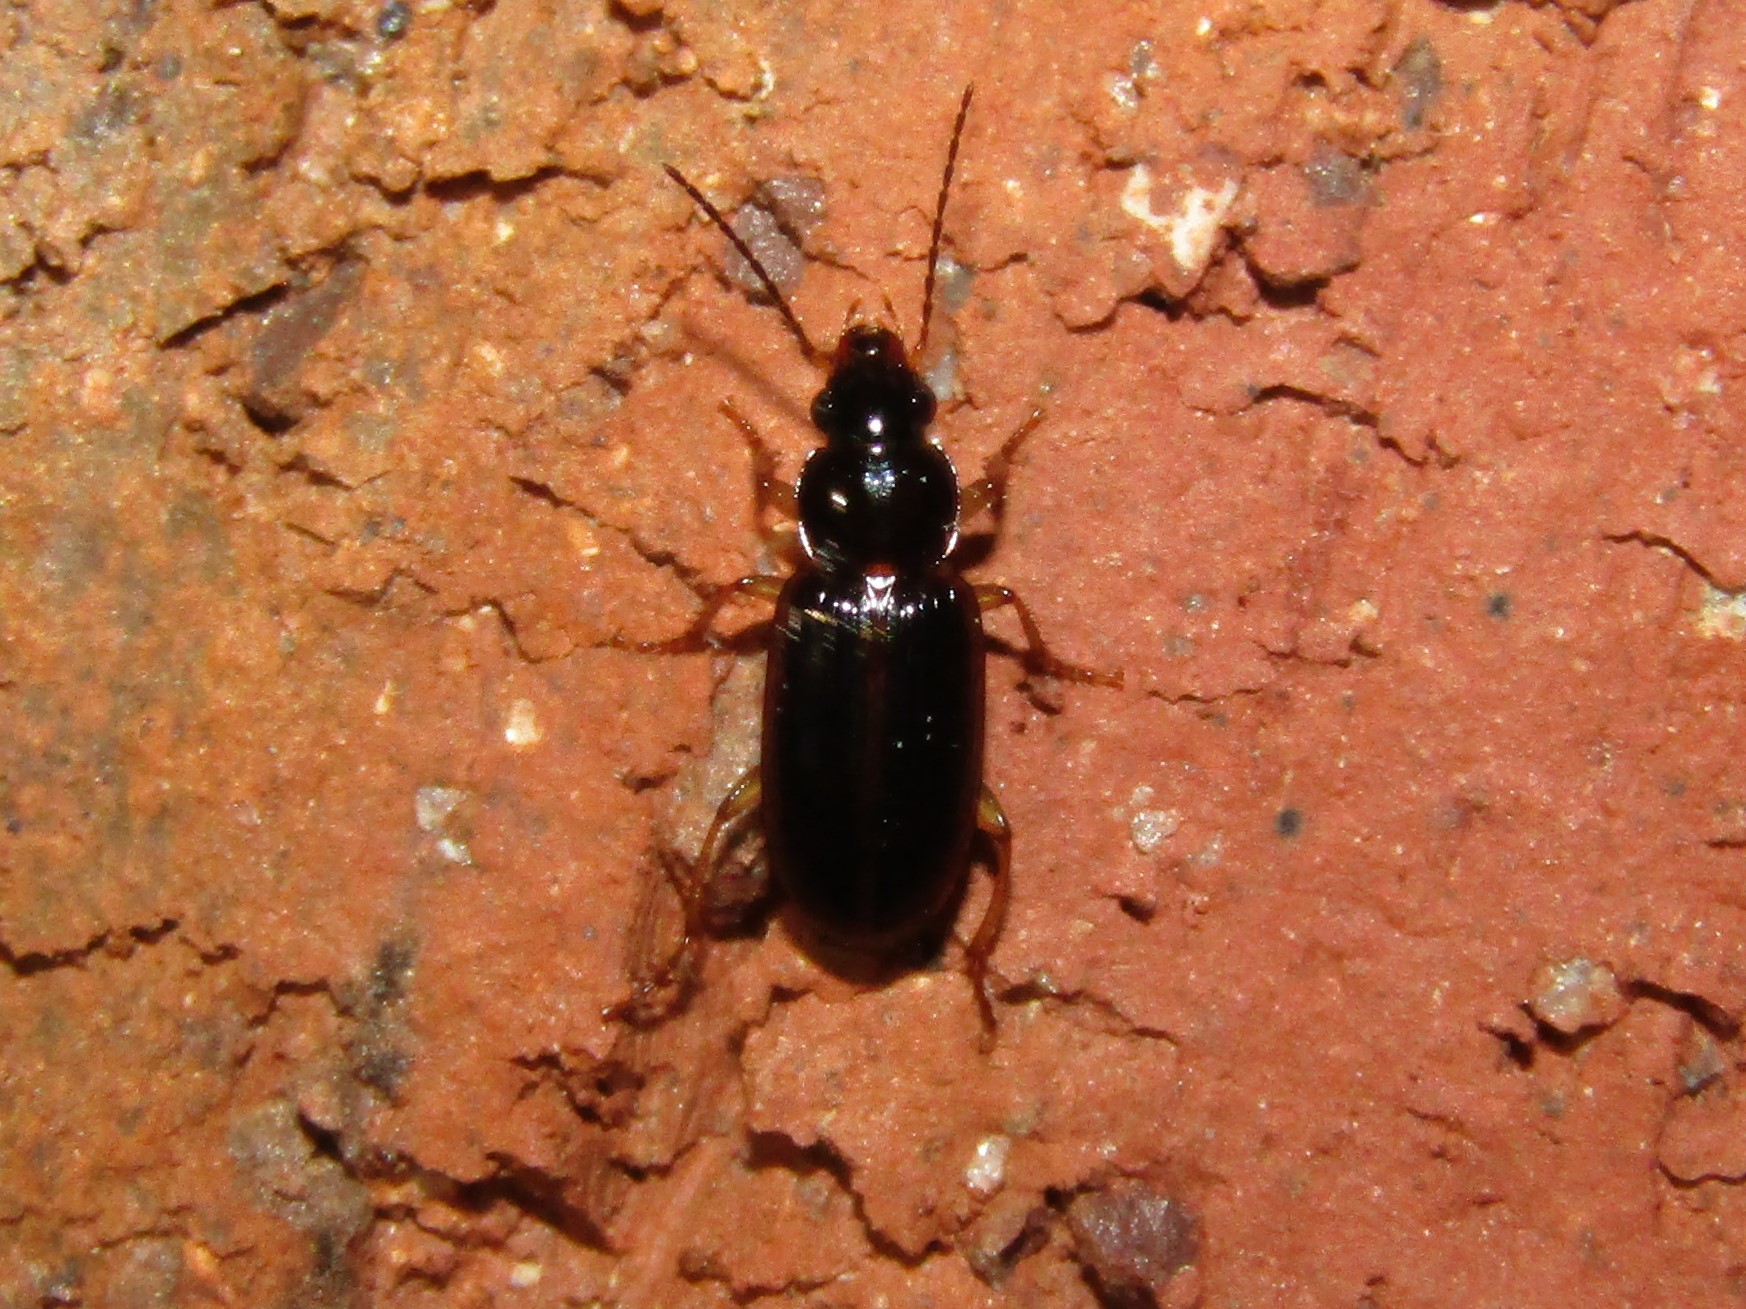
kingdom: Animalia
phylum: Arthropoda
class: Insecta
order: Coleoptera
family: Carabidae
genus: Stenolophus
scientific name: Stenolophus ochropezus
